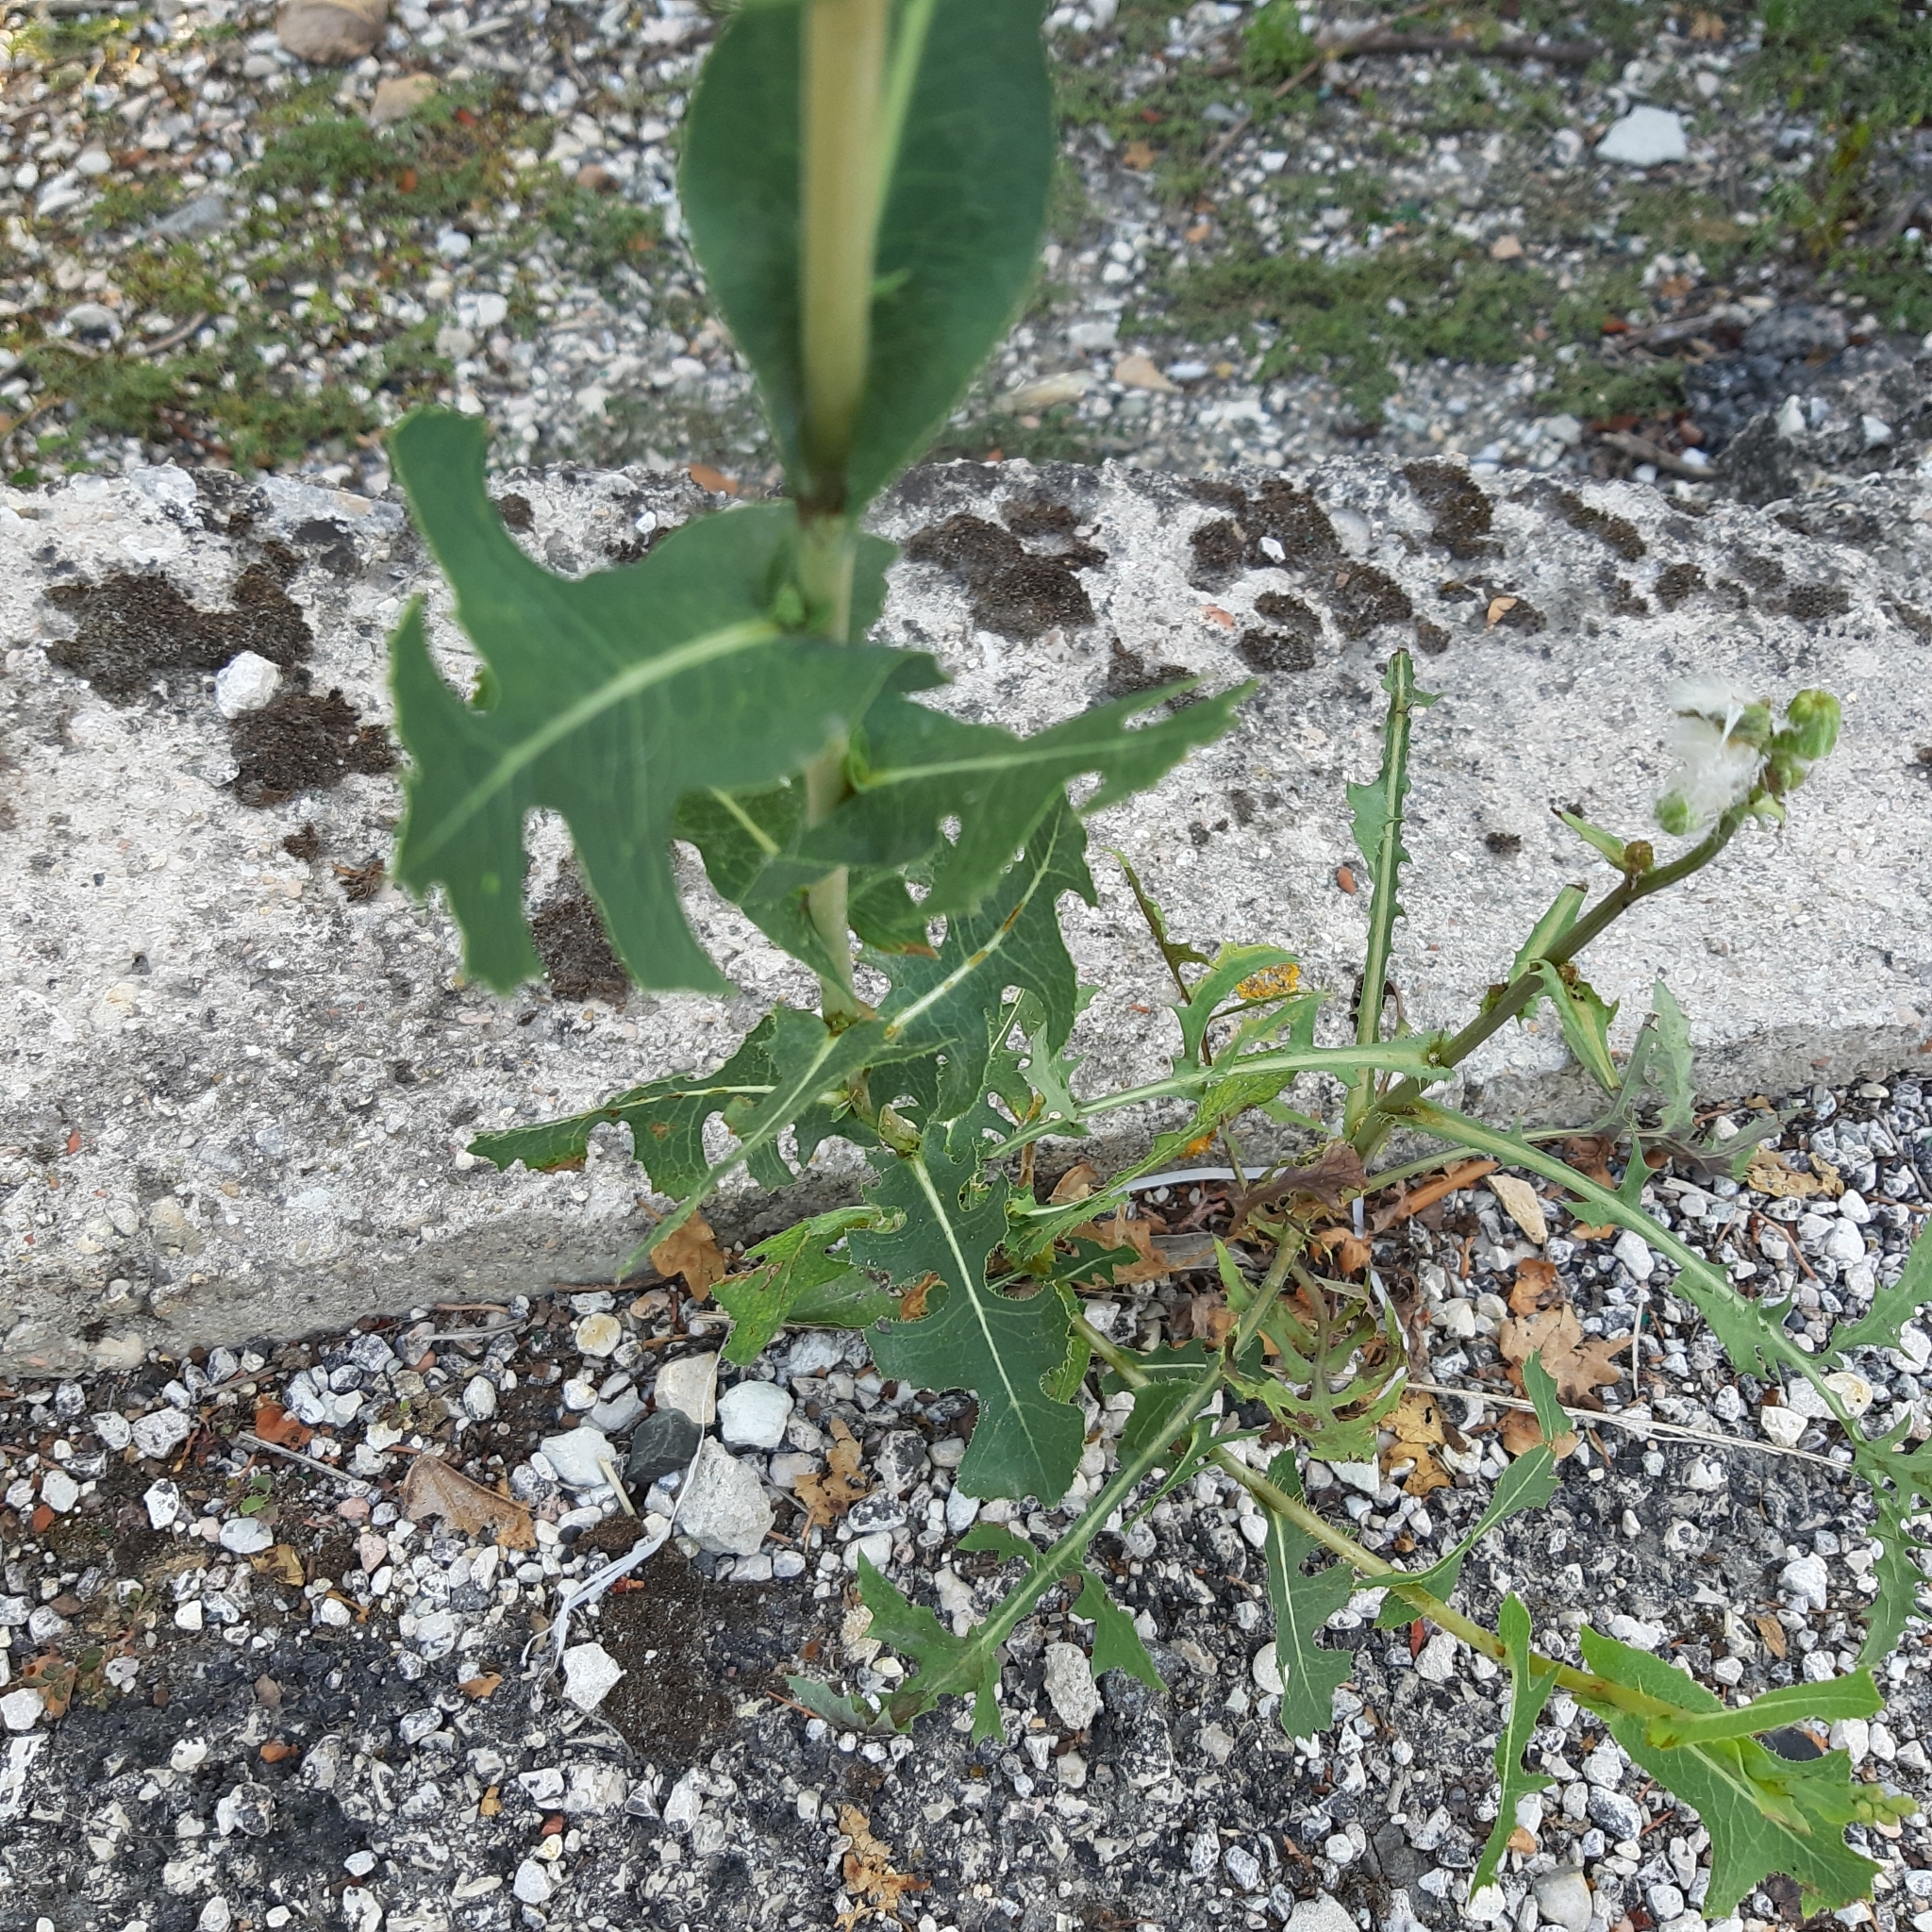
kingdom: Plantae
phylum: Tracheophyta
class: Magnoliopsida
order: Asterales
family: Asteraceae
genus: Lactuca
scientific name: Lactuca serriola
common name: Prickly lettuce
